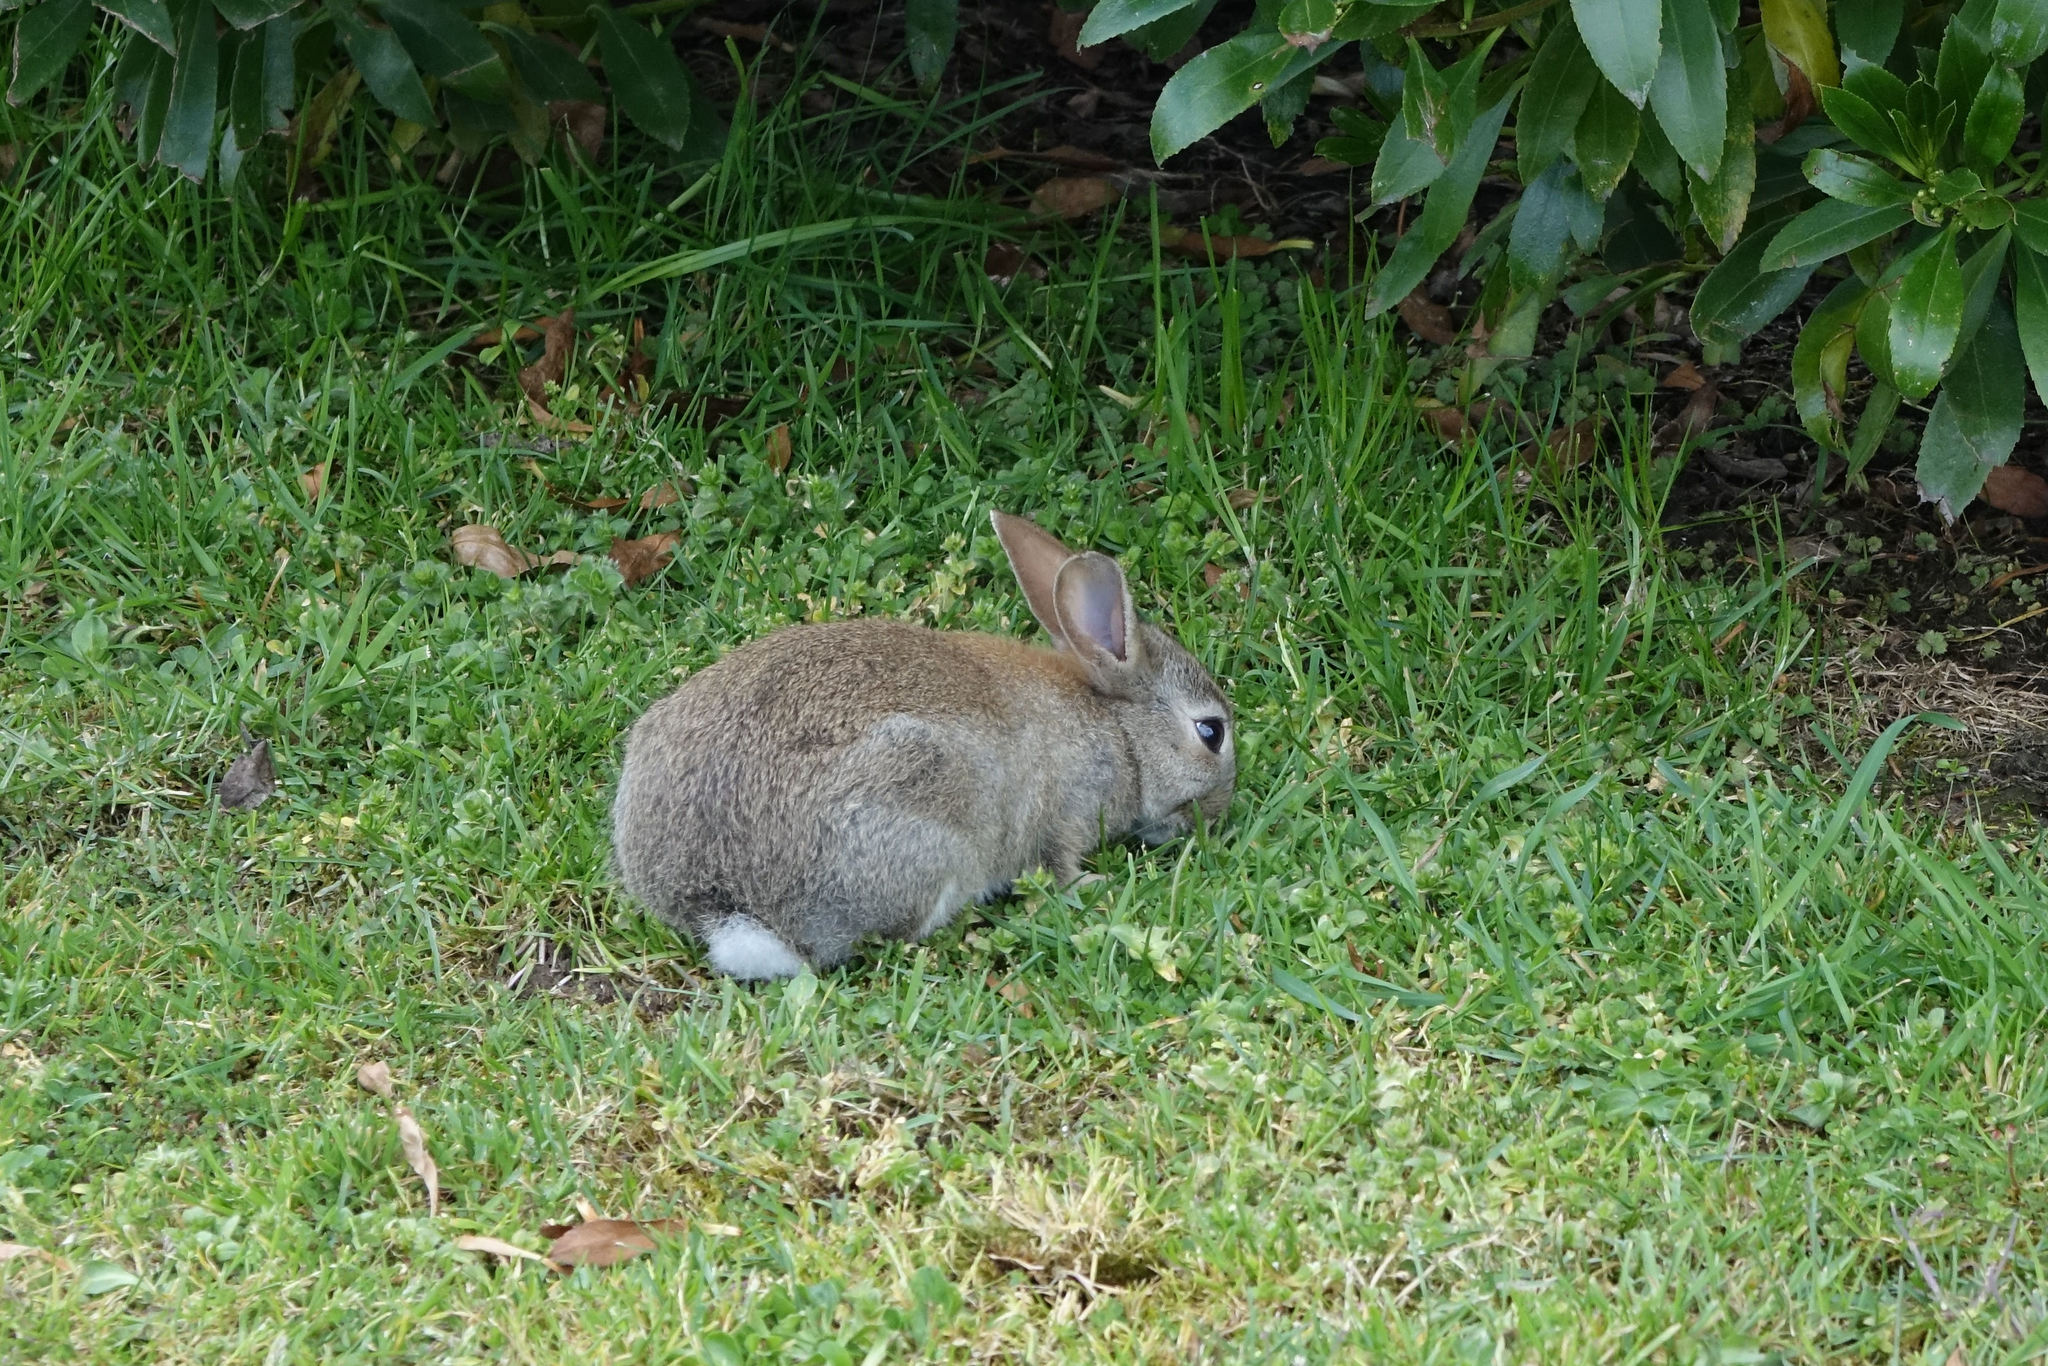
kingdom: Animalia
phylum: Chordata
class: Mammalia
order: Lagomorpha
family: Leporidae
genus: Oryctolagus
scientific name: Oryctolagus cuniculus
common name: European rabbit
